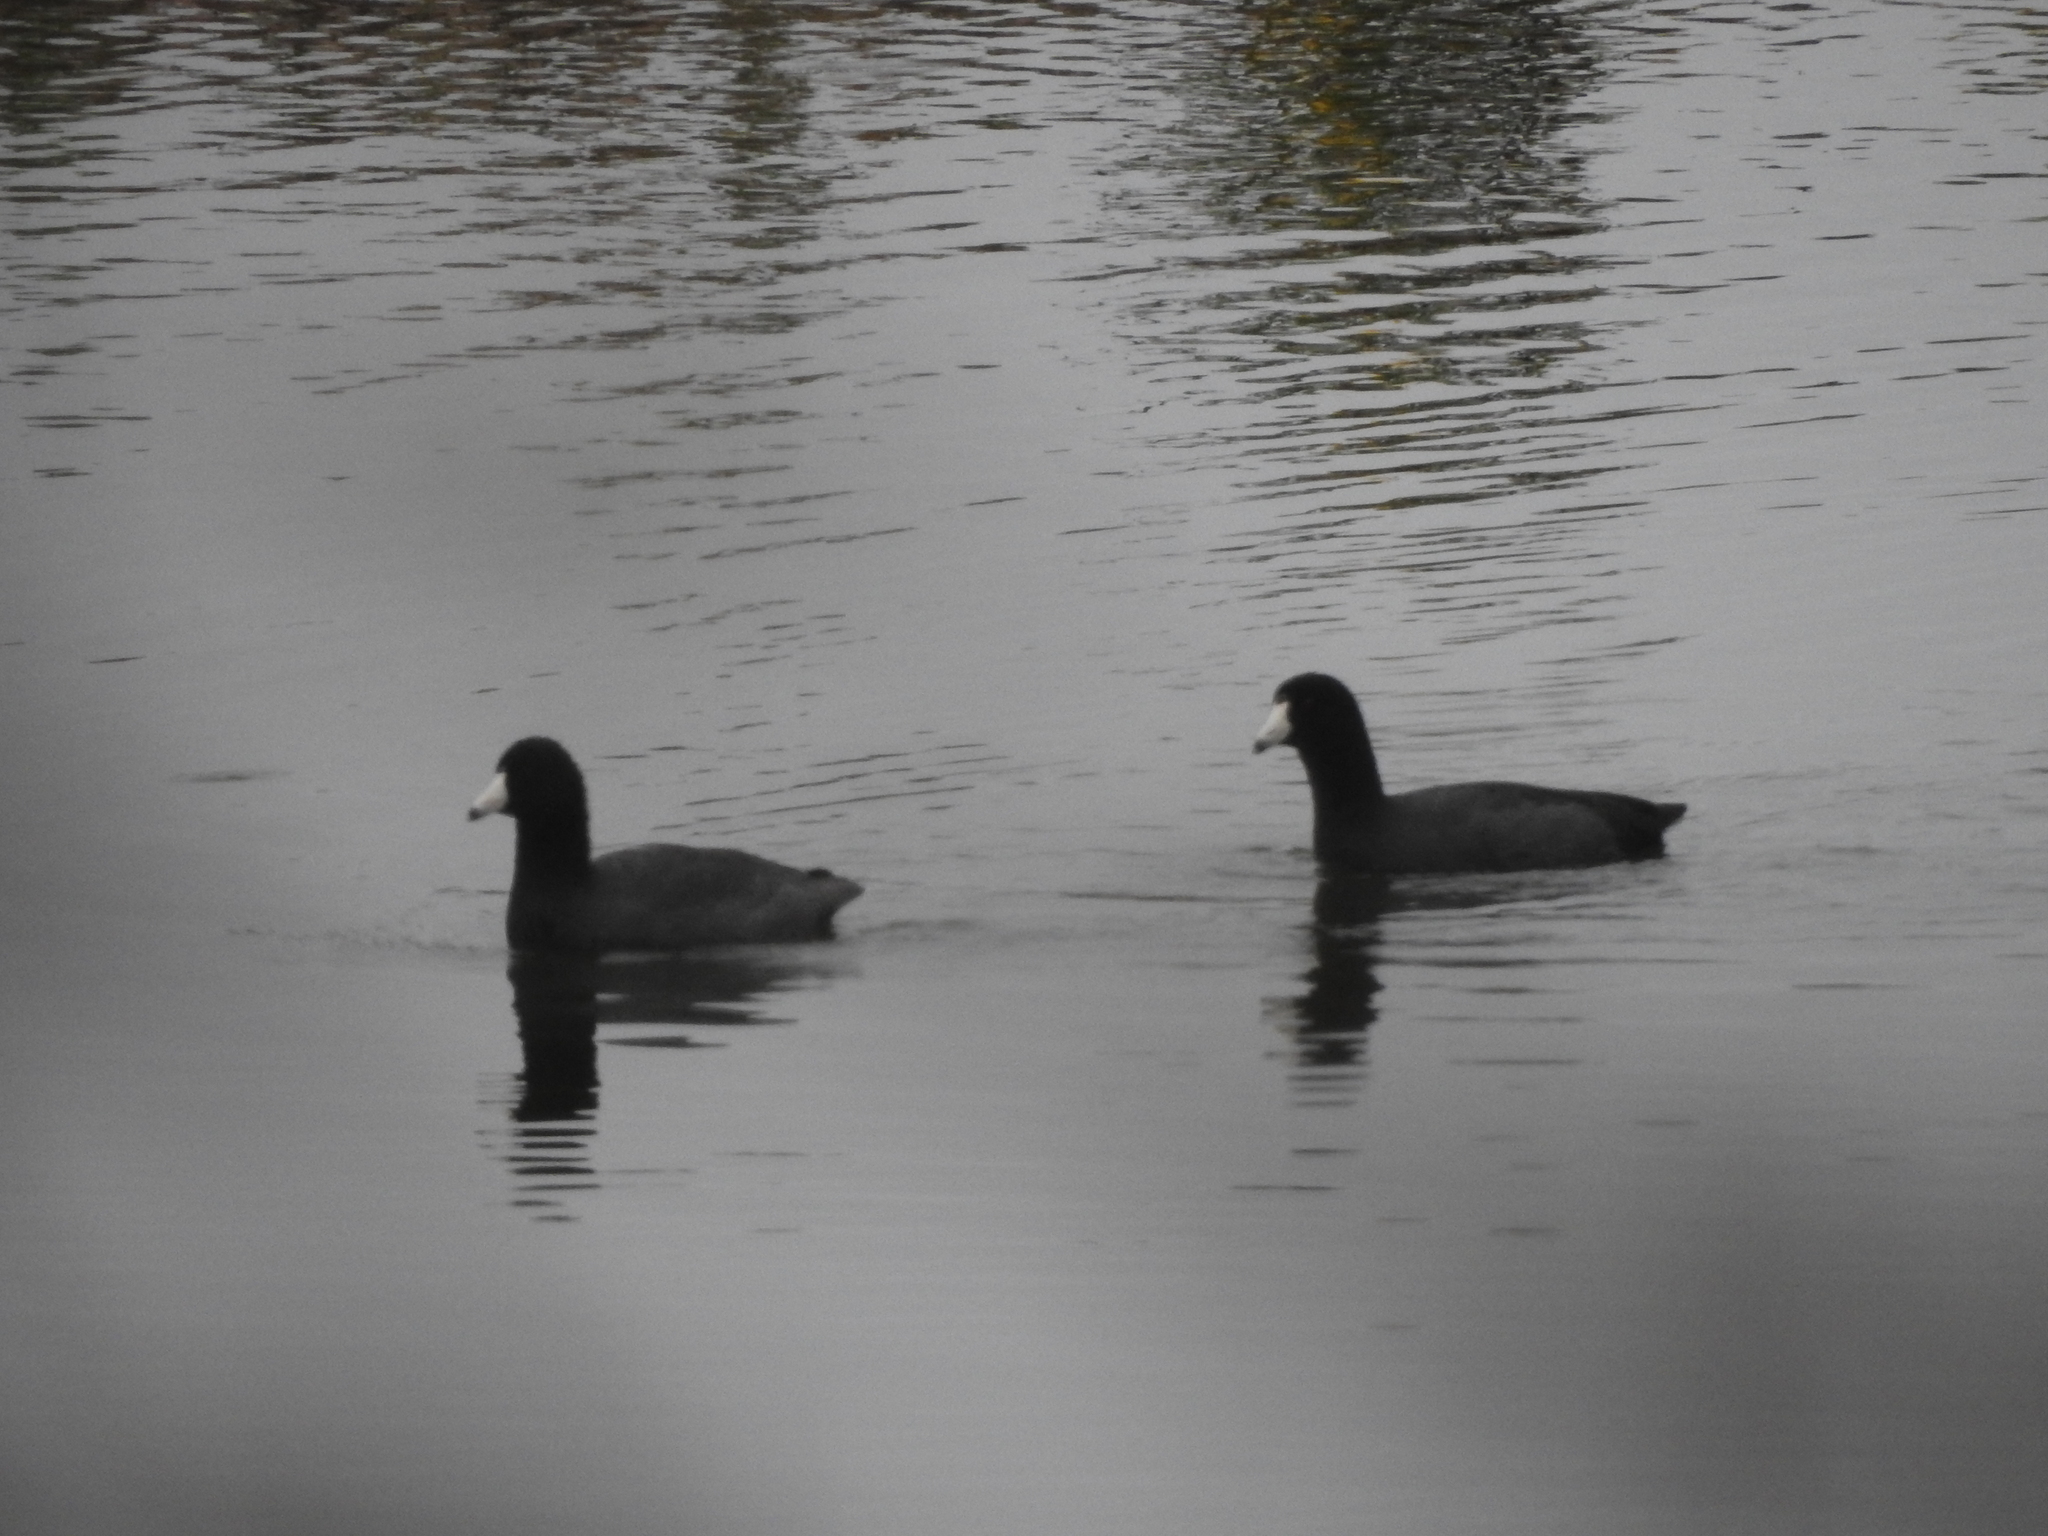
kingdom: Animalia
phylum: Chordata
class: Aves
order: Gruiformes
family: Rallidae
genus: Fulica
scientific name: Fulica americana
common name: American coot
